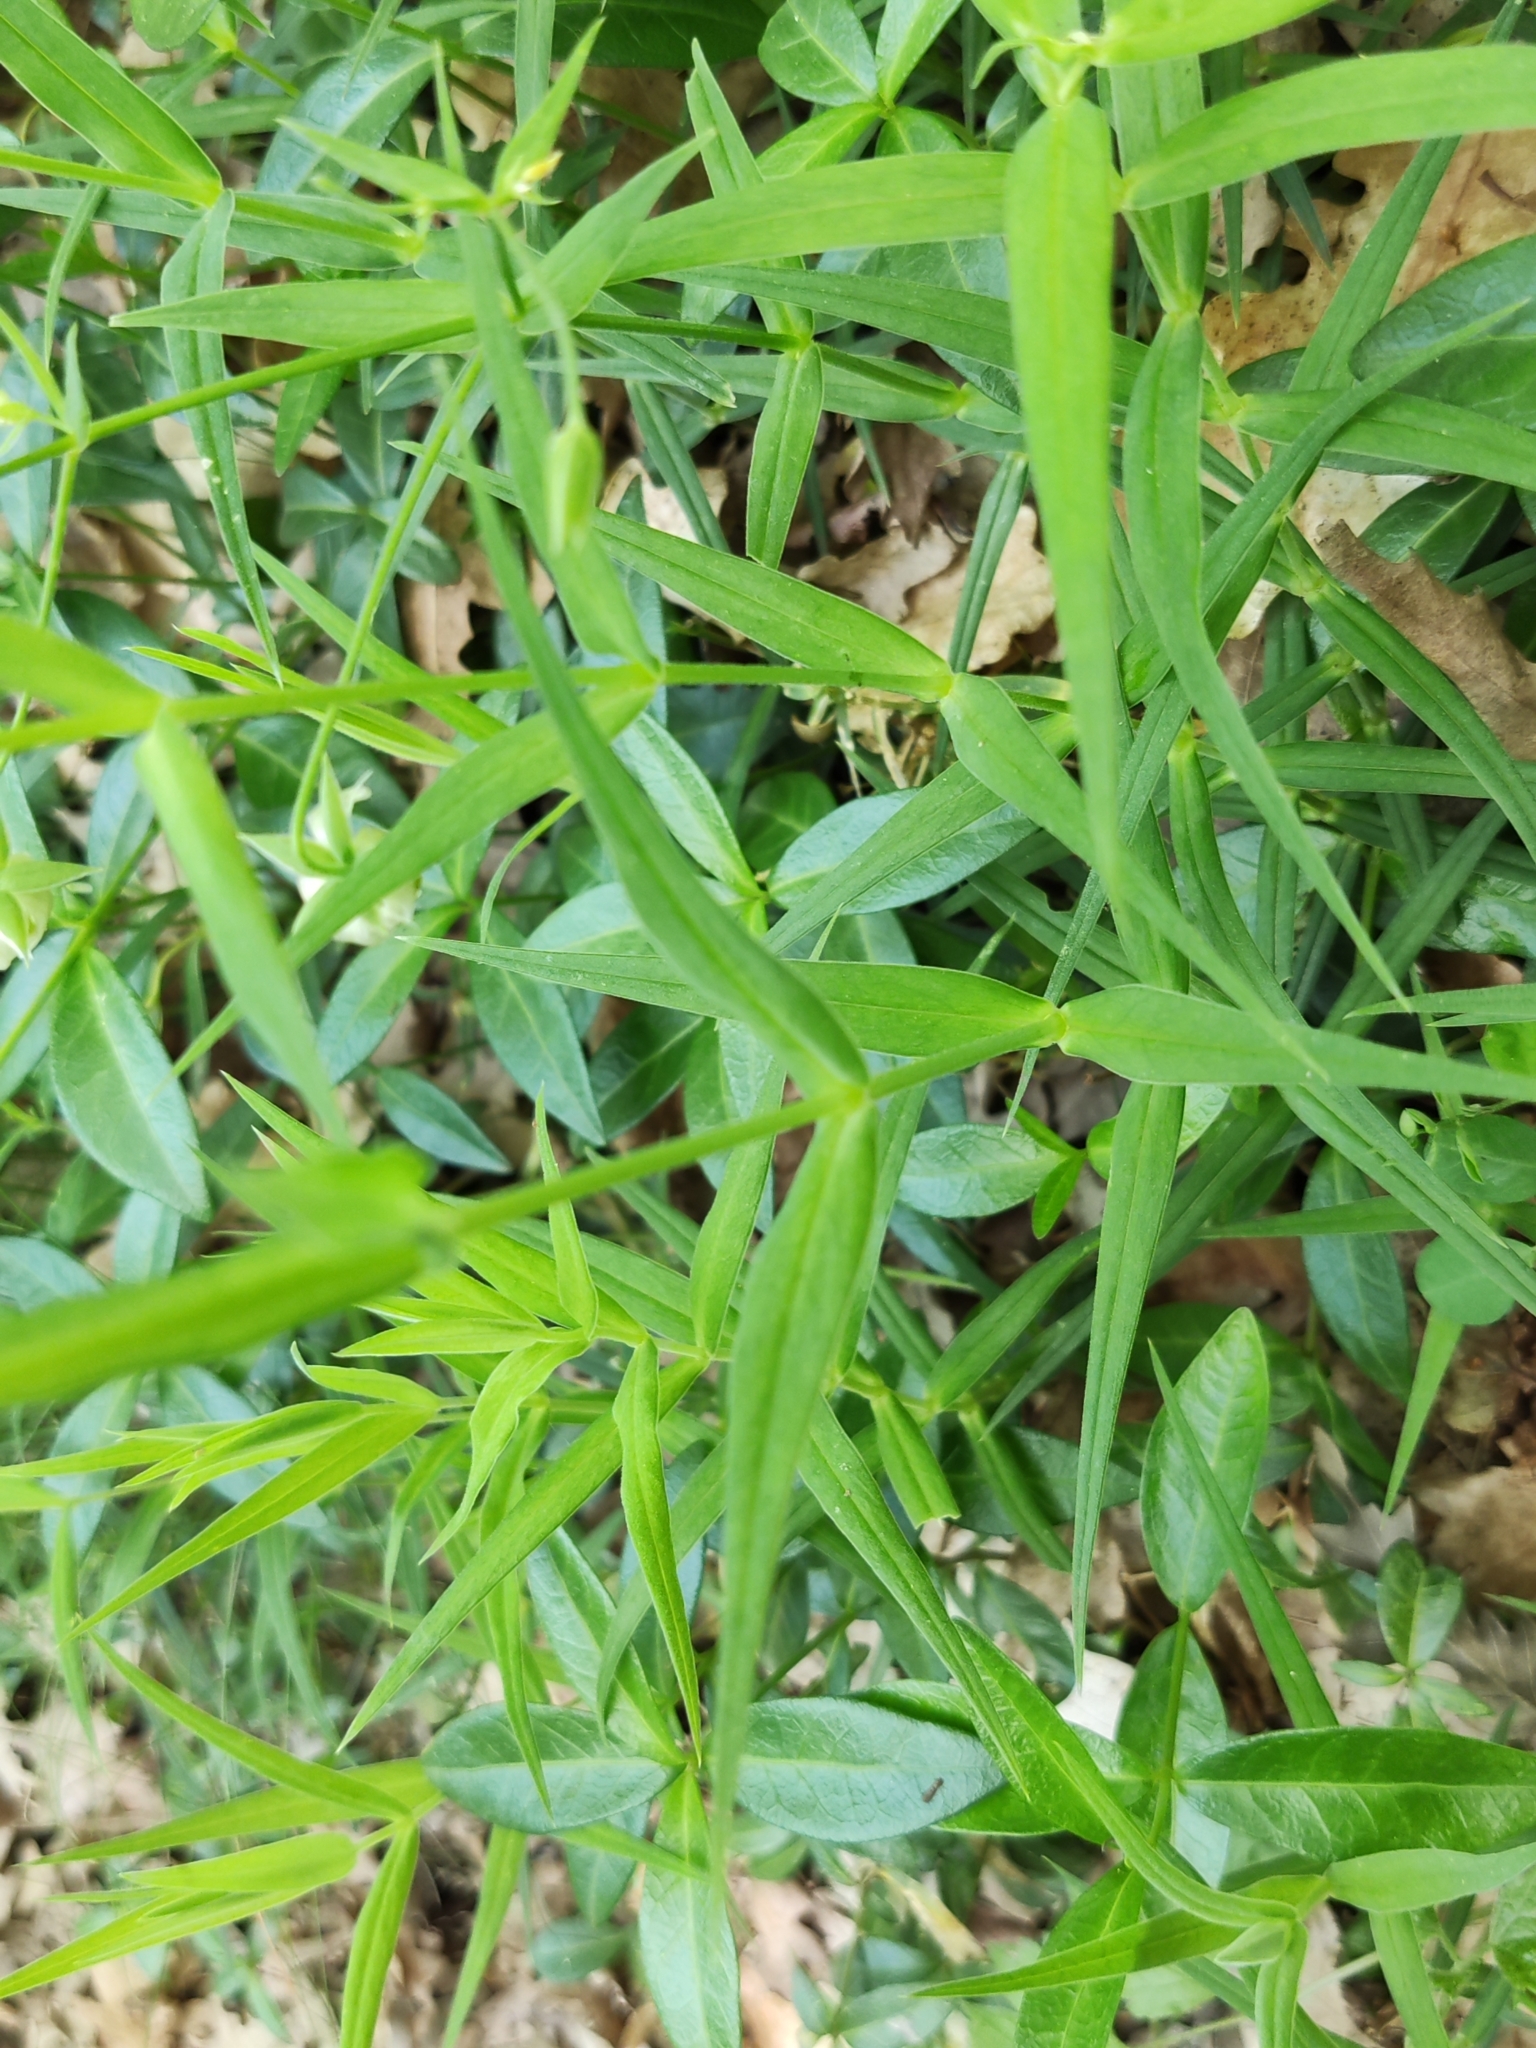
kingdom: Plantae
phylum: Tracheophyta
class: Magnoliopsida
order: Caryophyllales
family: Caryophyllaceae
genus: Rabelera
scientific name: Rabelera holostea
